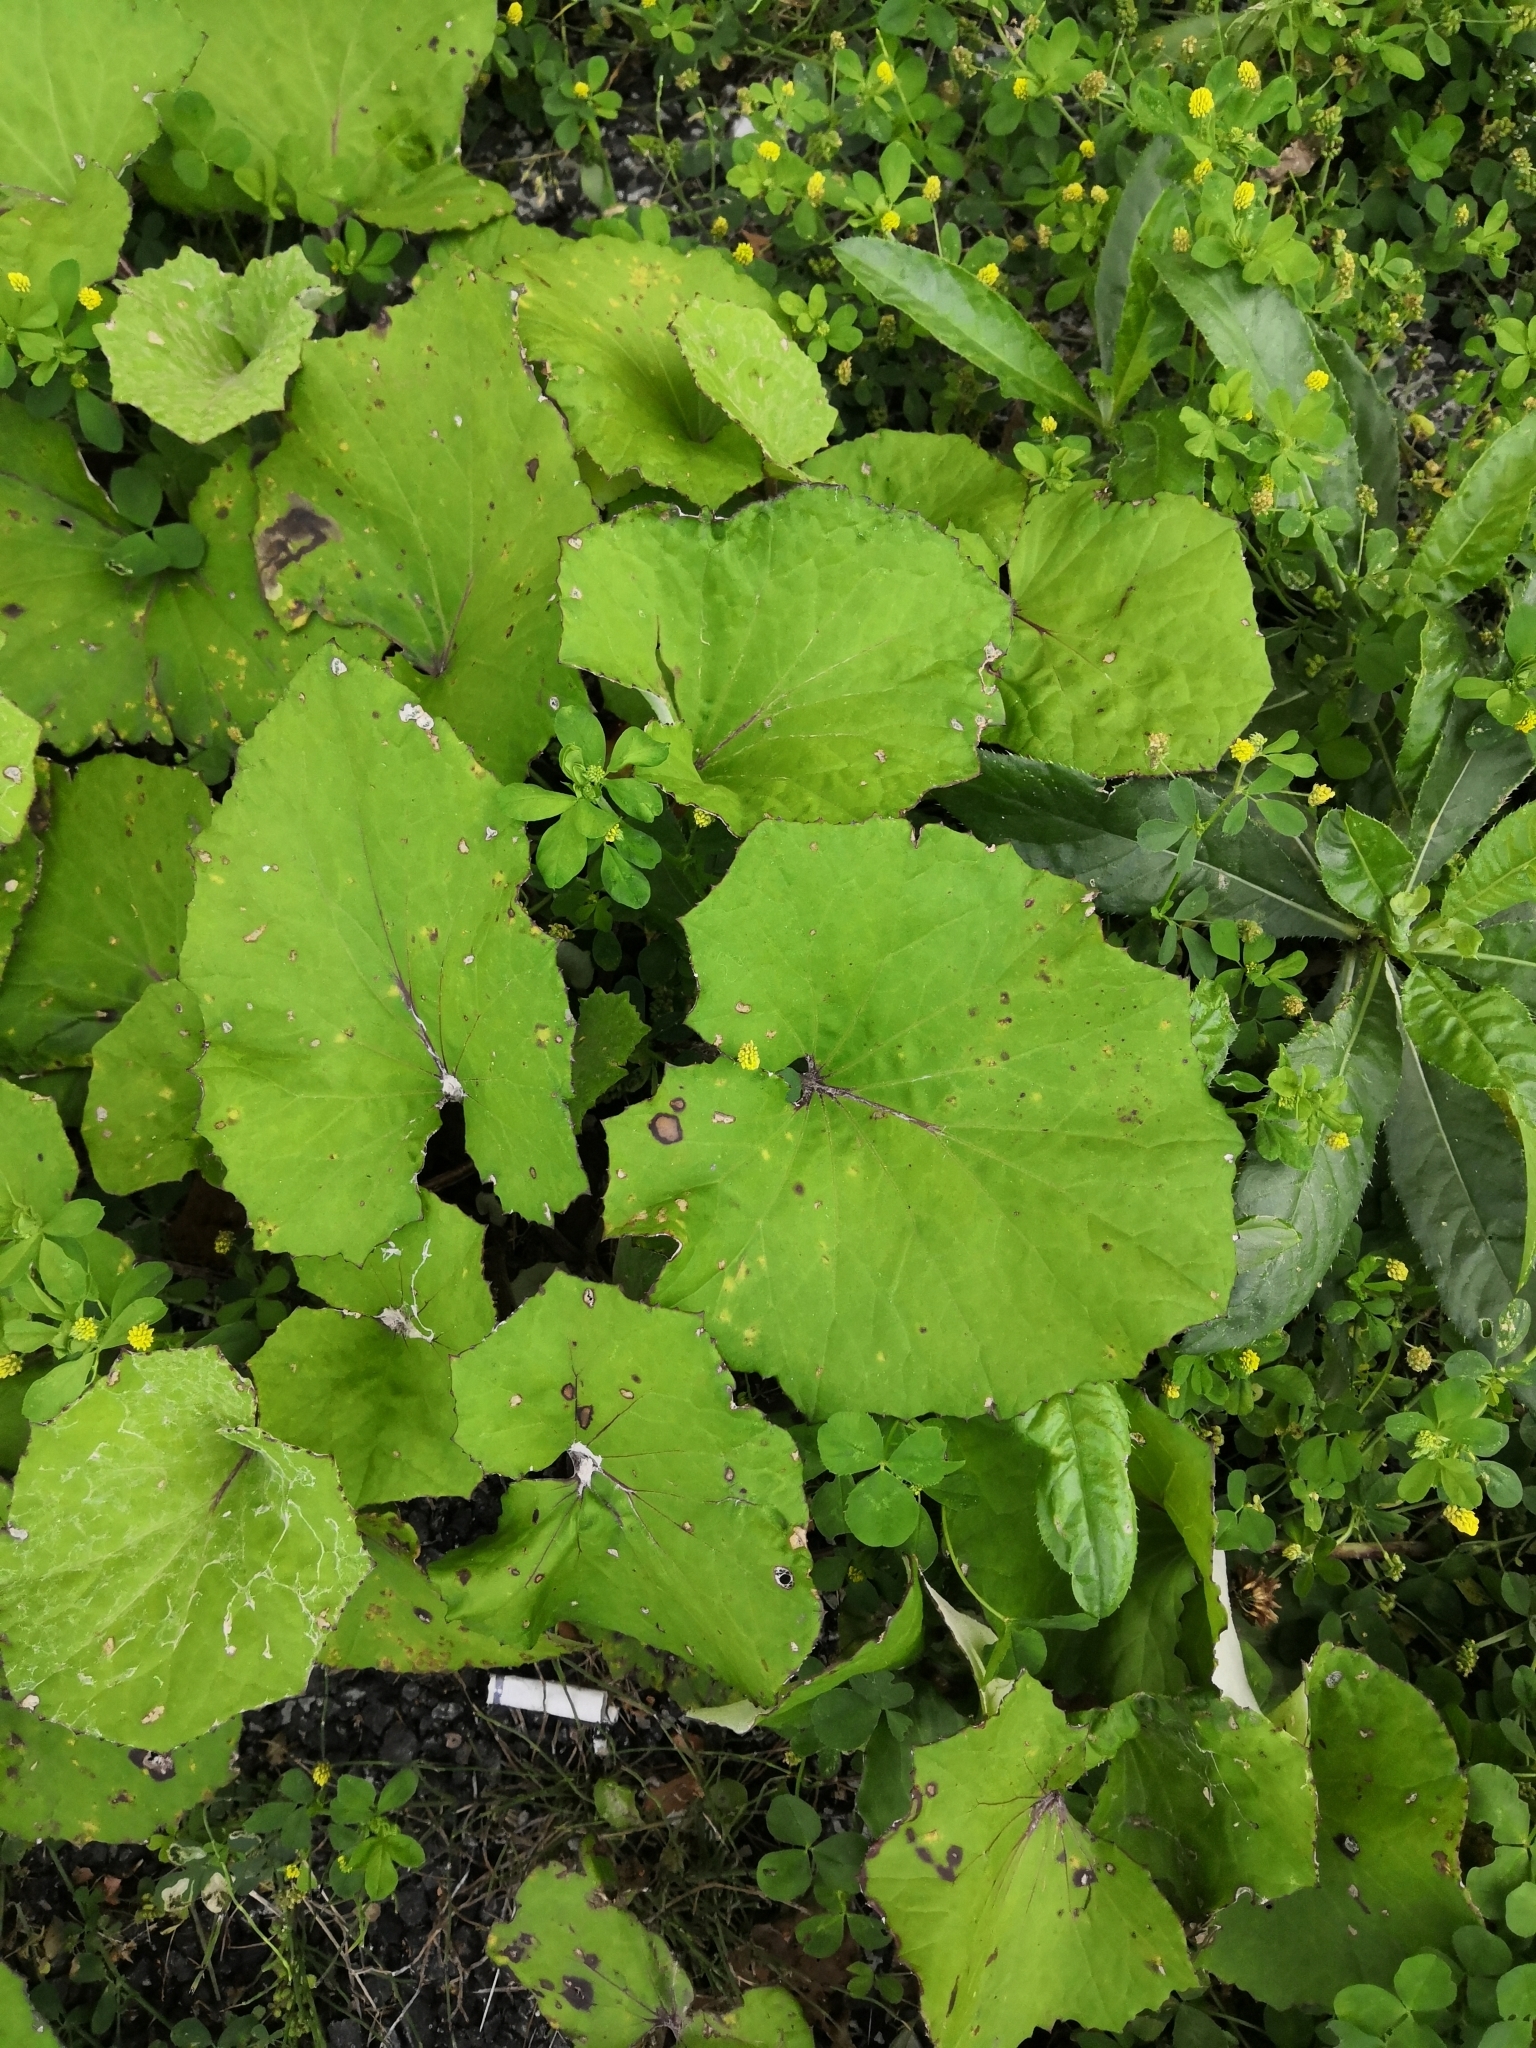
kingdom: Plantae
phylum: Tracheophyta
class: Magnoliopsida
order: Asterales
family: Asteraceae
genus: Tussilago
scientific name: Tussilago farfara
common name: Coltsfoot
